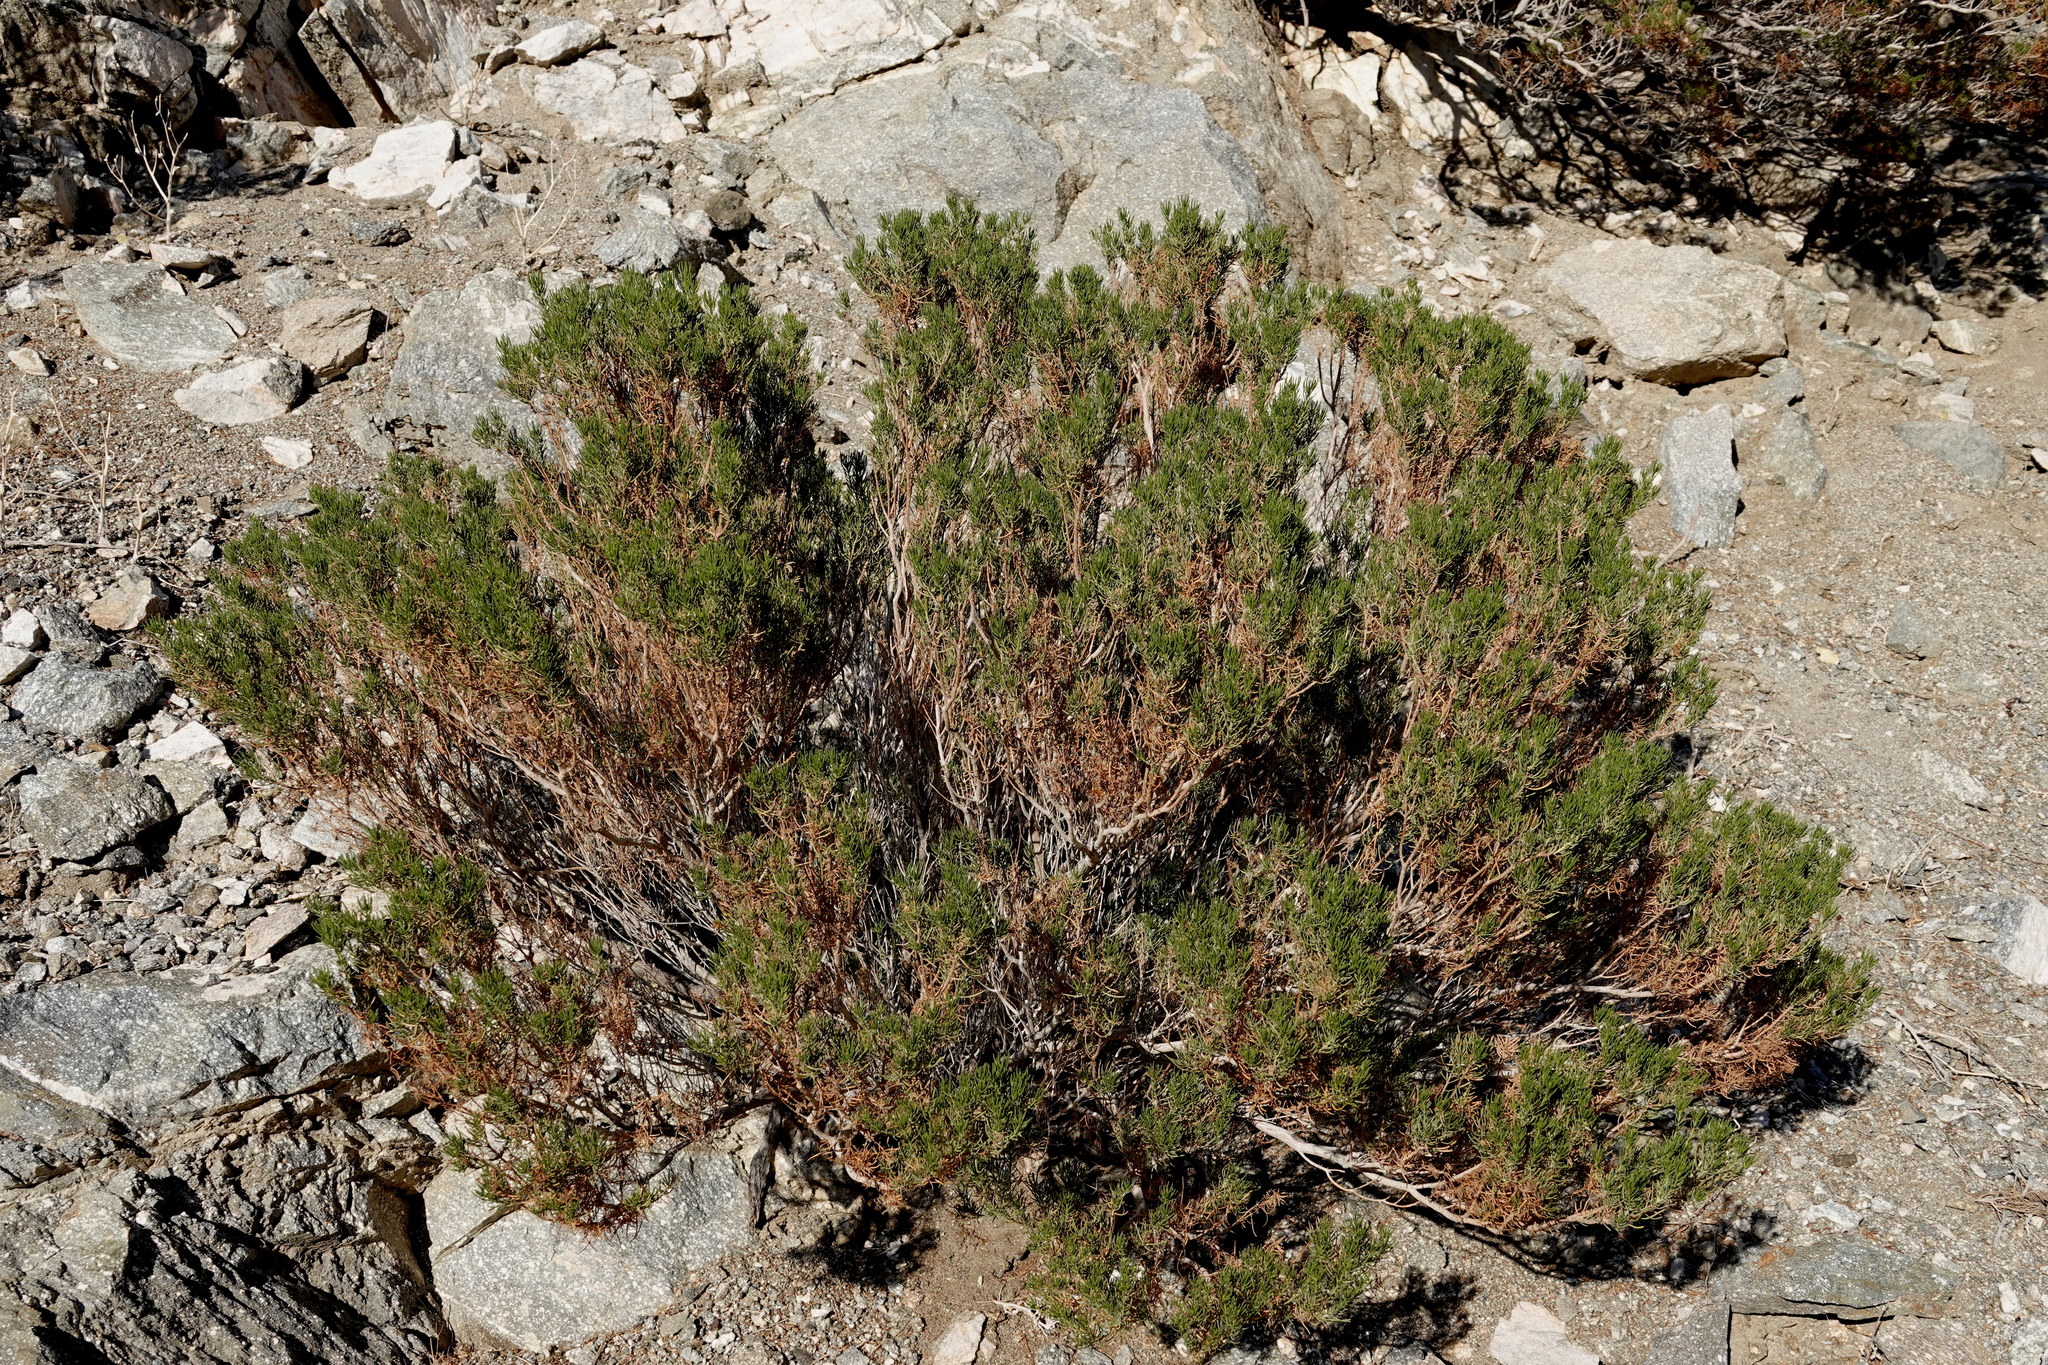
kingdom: Plantae
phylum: Tracheophyta
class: Magnoliopsida
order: Asterales
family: Asteraceae
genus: Peucephyllum
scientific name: Peucephyllum schottii
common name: Pygmy-cedar
